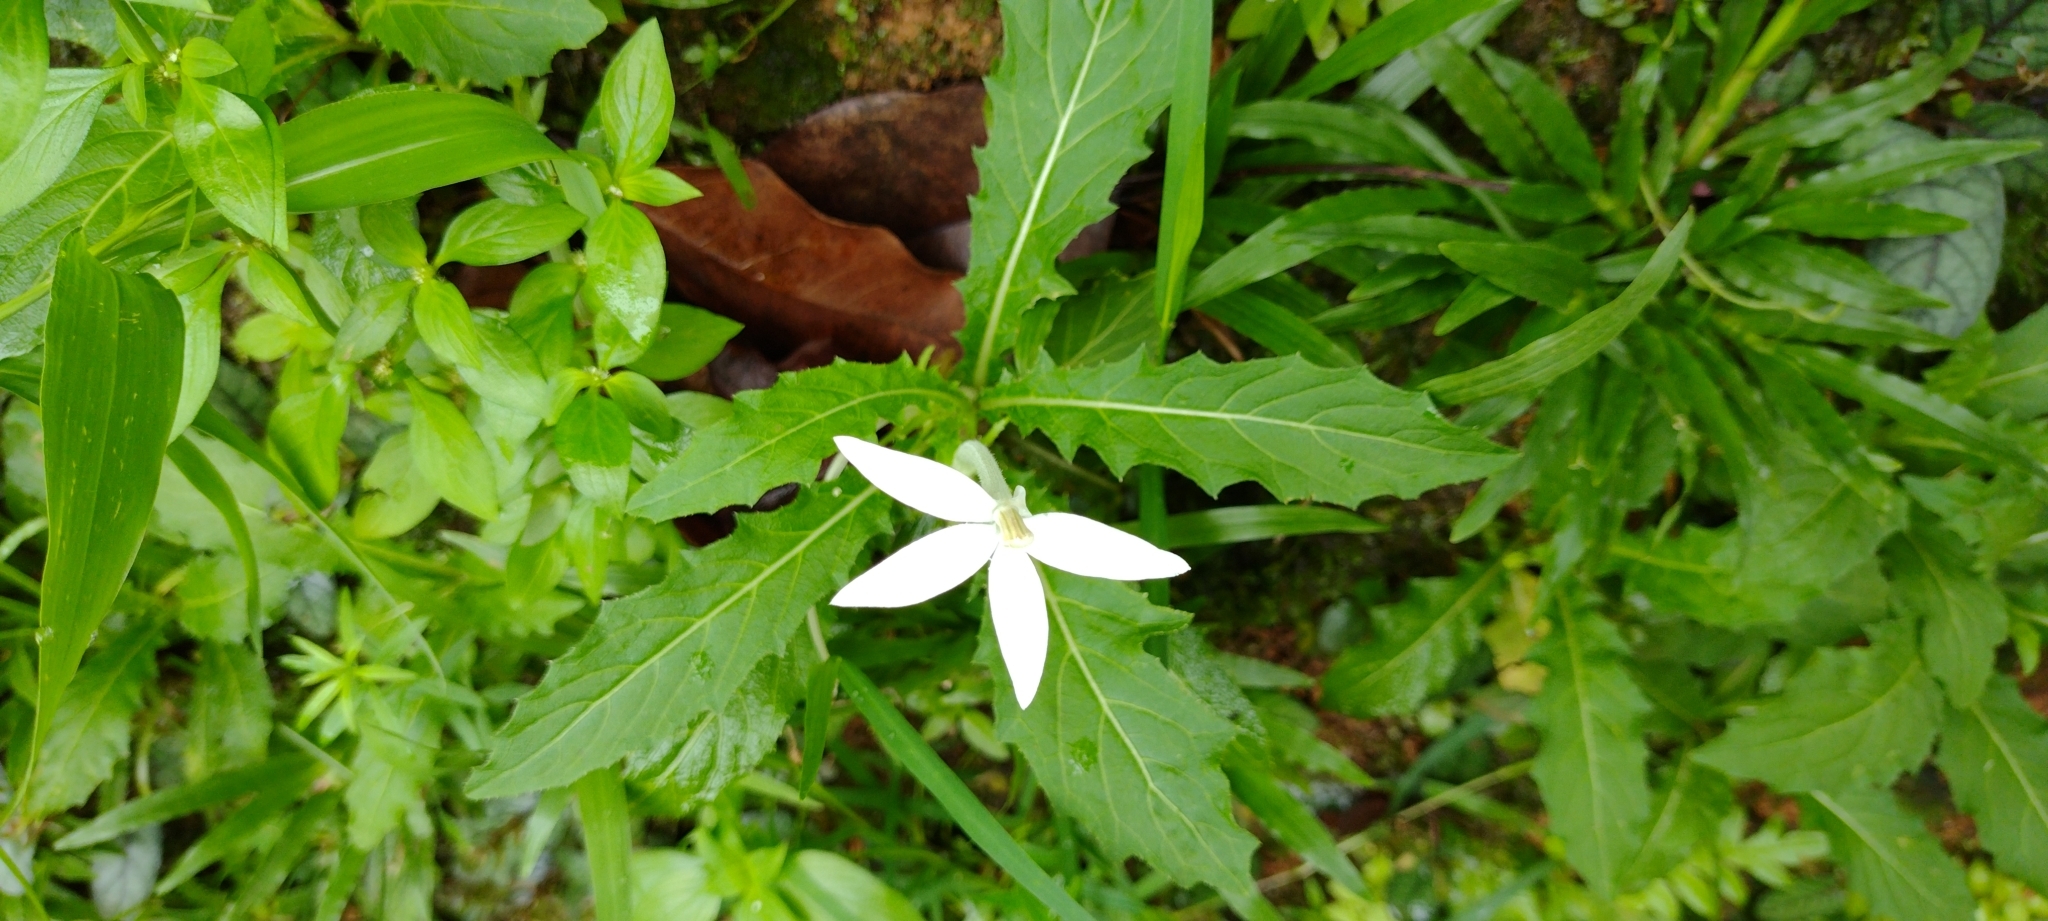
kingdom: Plantae
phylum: Tracheophyta
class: Magnoliopsida
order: Asterales
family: Campanulaceae
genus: Hippobroma
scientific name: Hippobroma longiflora
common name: Madamfate
